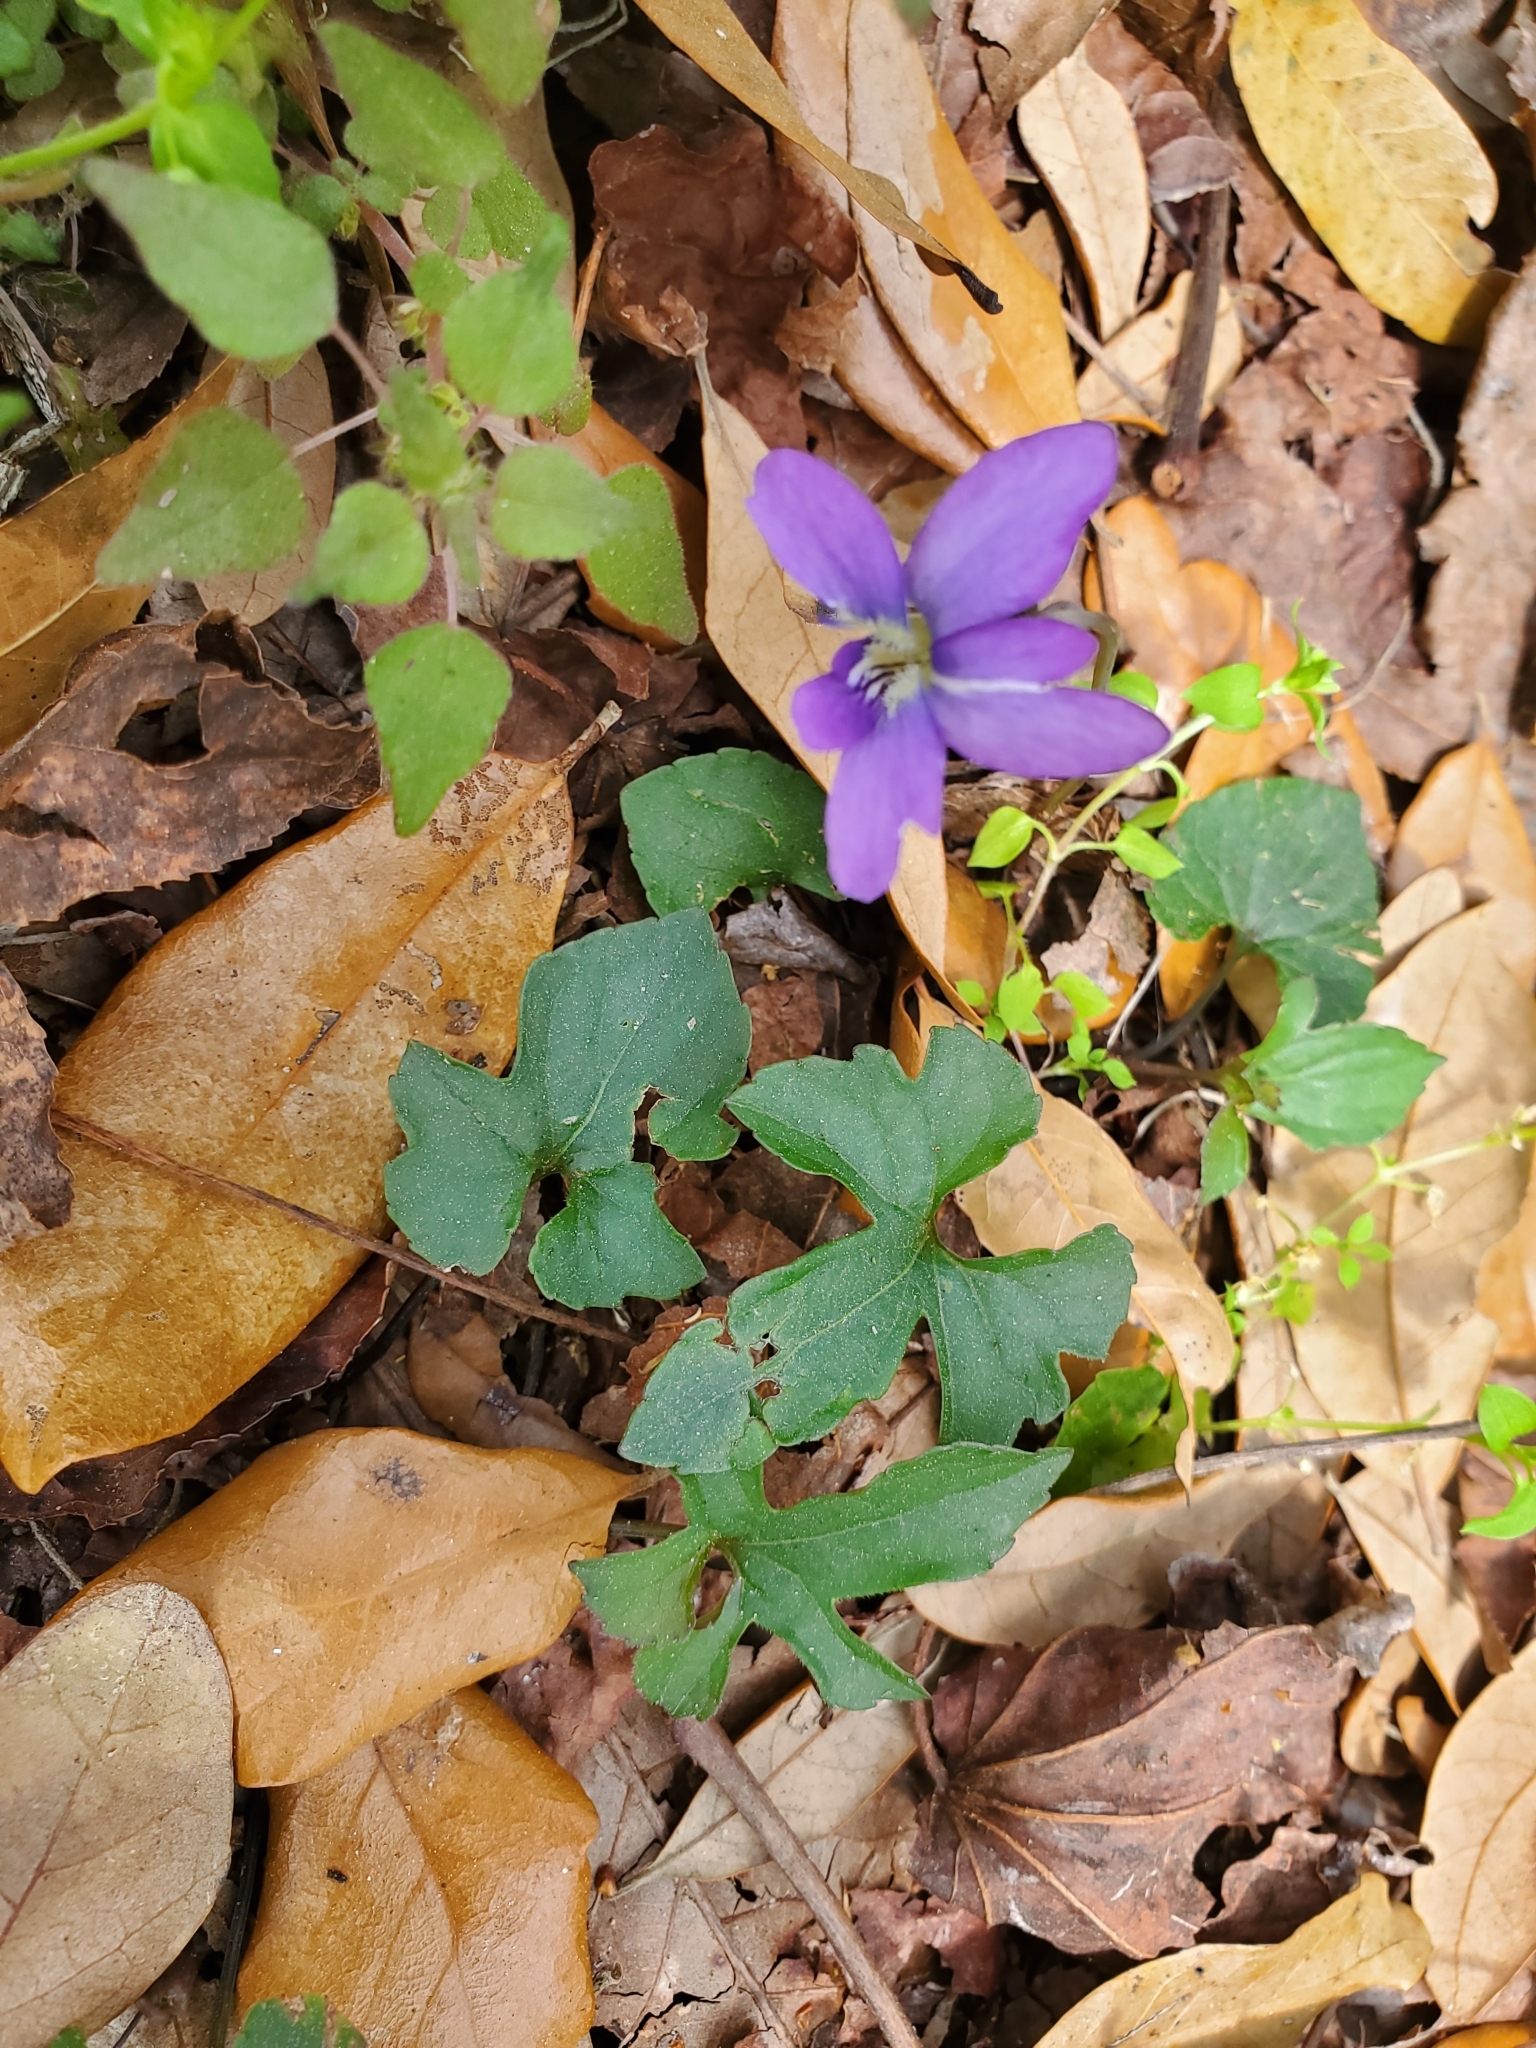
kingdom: Plantae
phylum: Tracheophyta
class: Magnoliopsida
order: Malpighiales
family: Violaceae
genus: Viola
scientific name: Viola palmata
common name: Early blue violet
